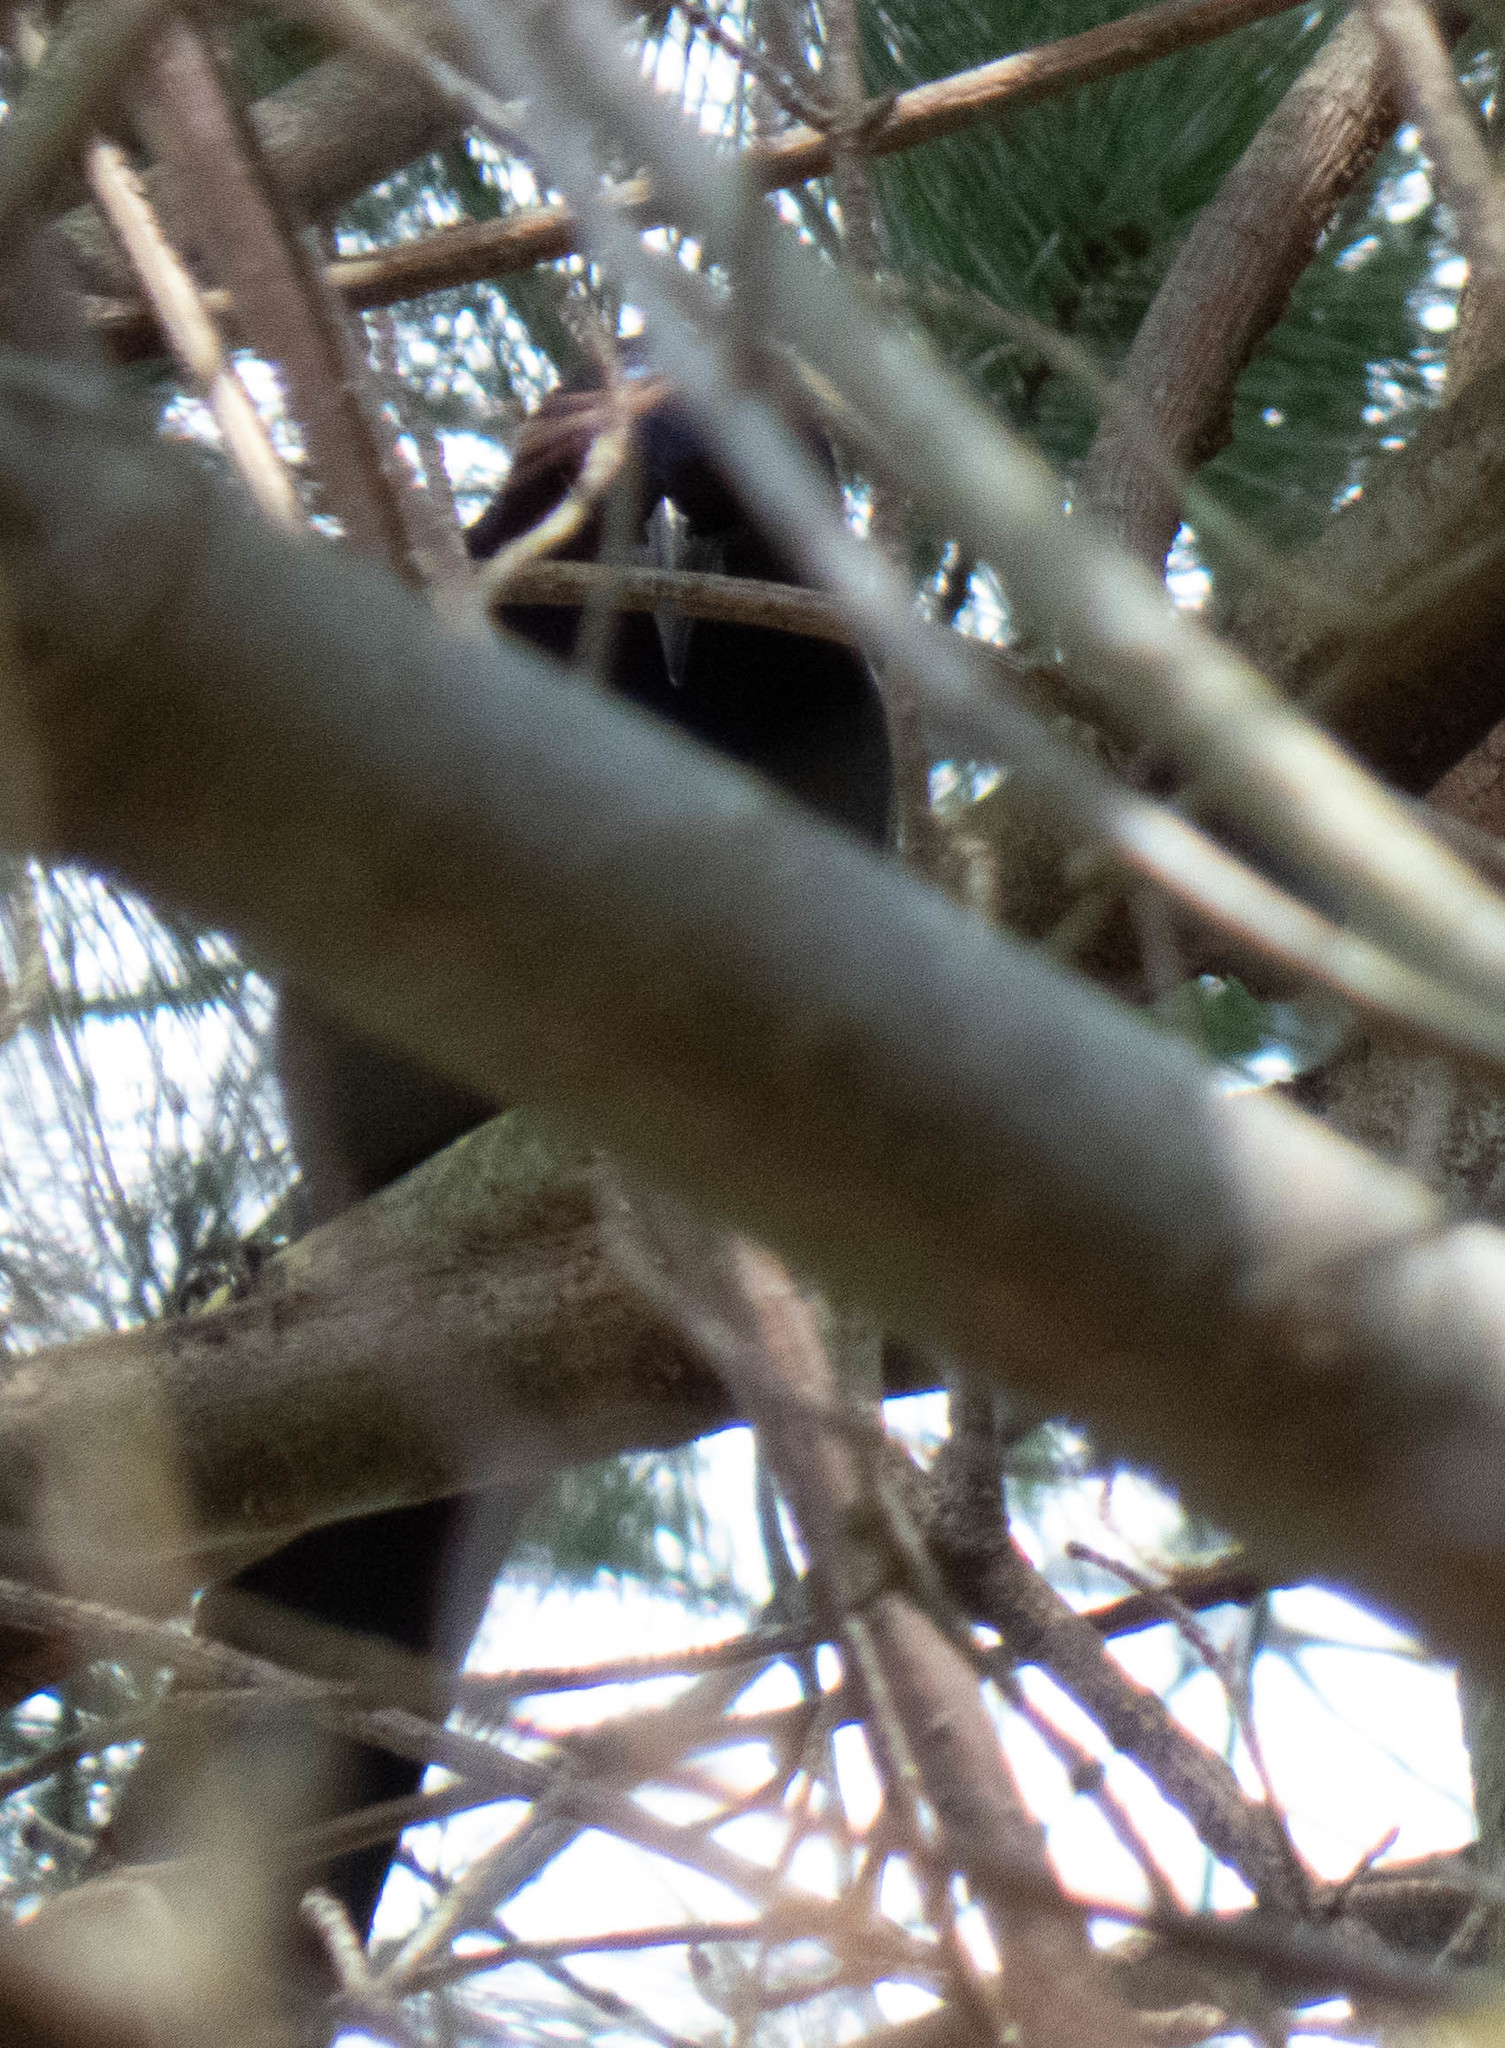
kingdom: Animalia
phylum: Chordata
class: Aves
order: Passeriformes
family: Icteridae
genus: Quiscalus
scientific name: Quiscalus quiscula
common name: Common grackle
